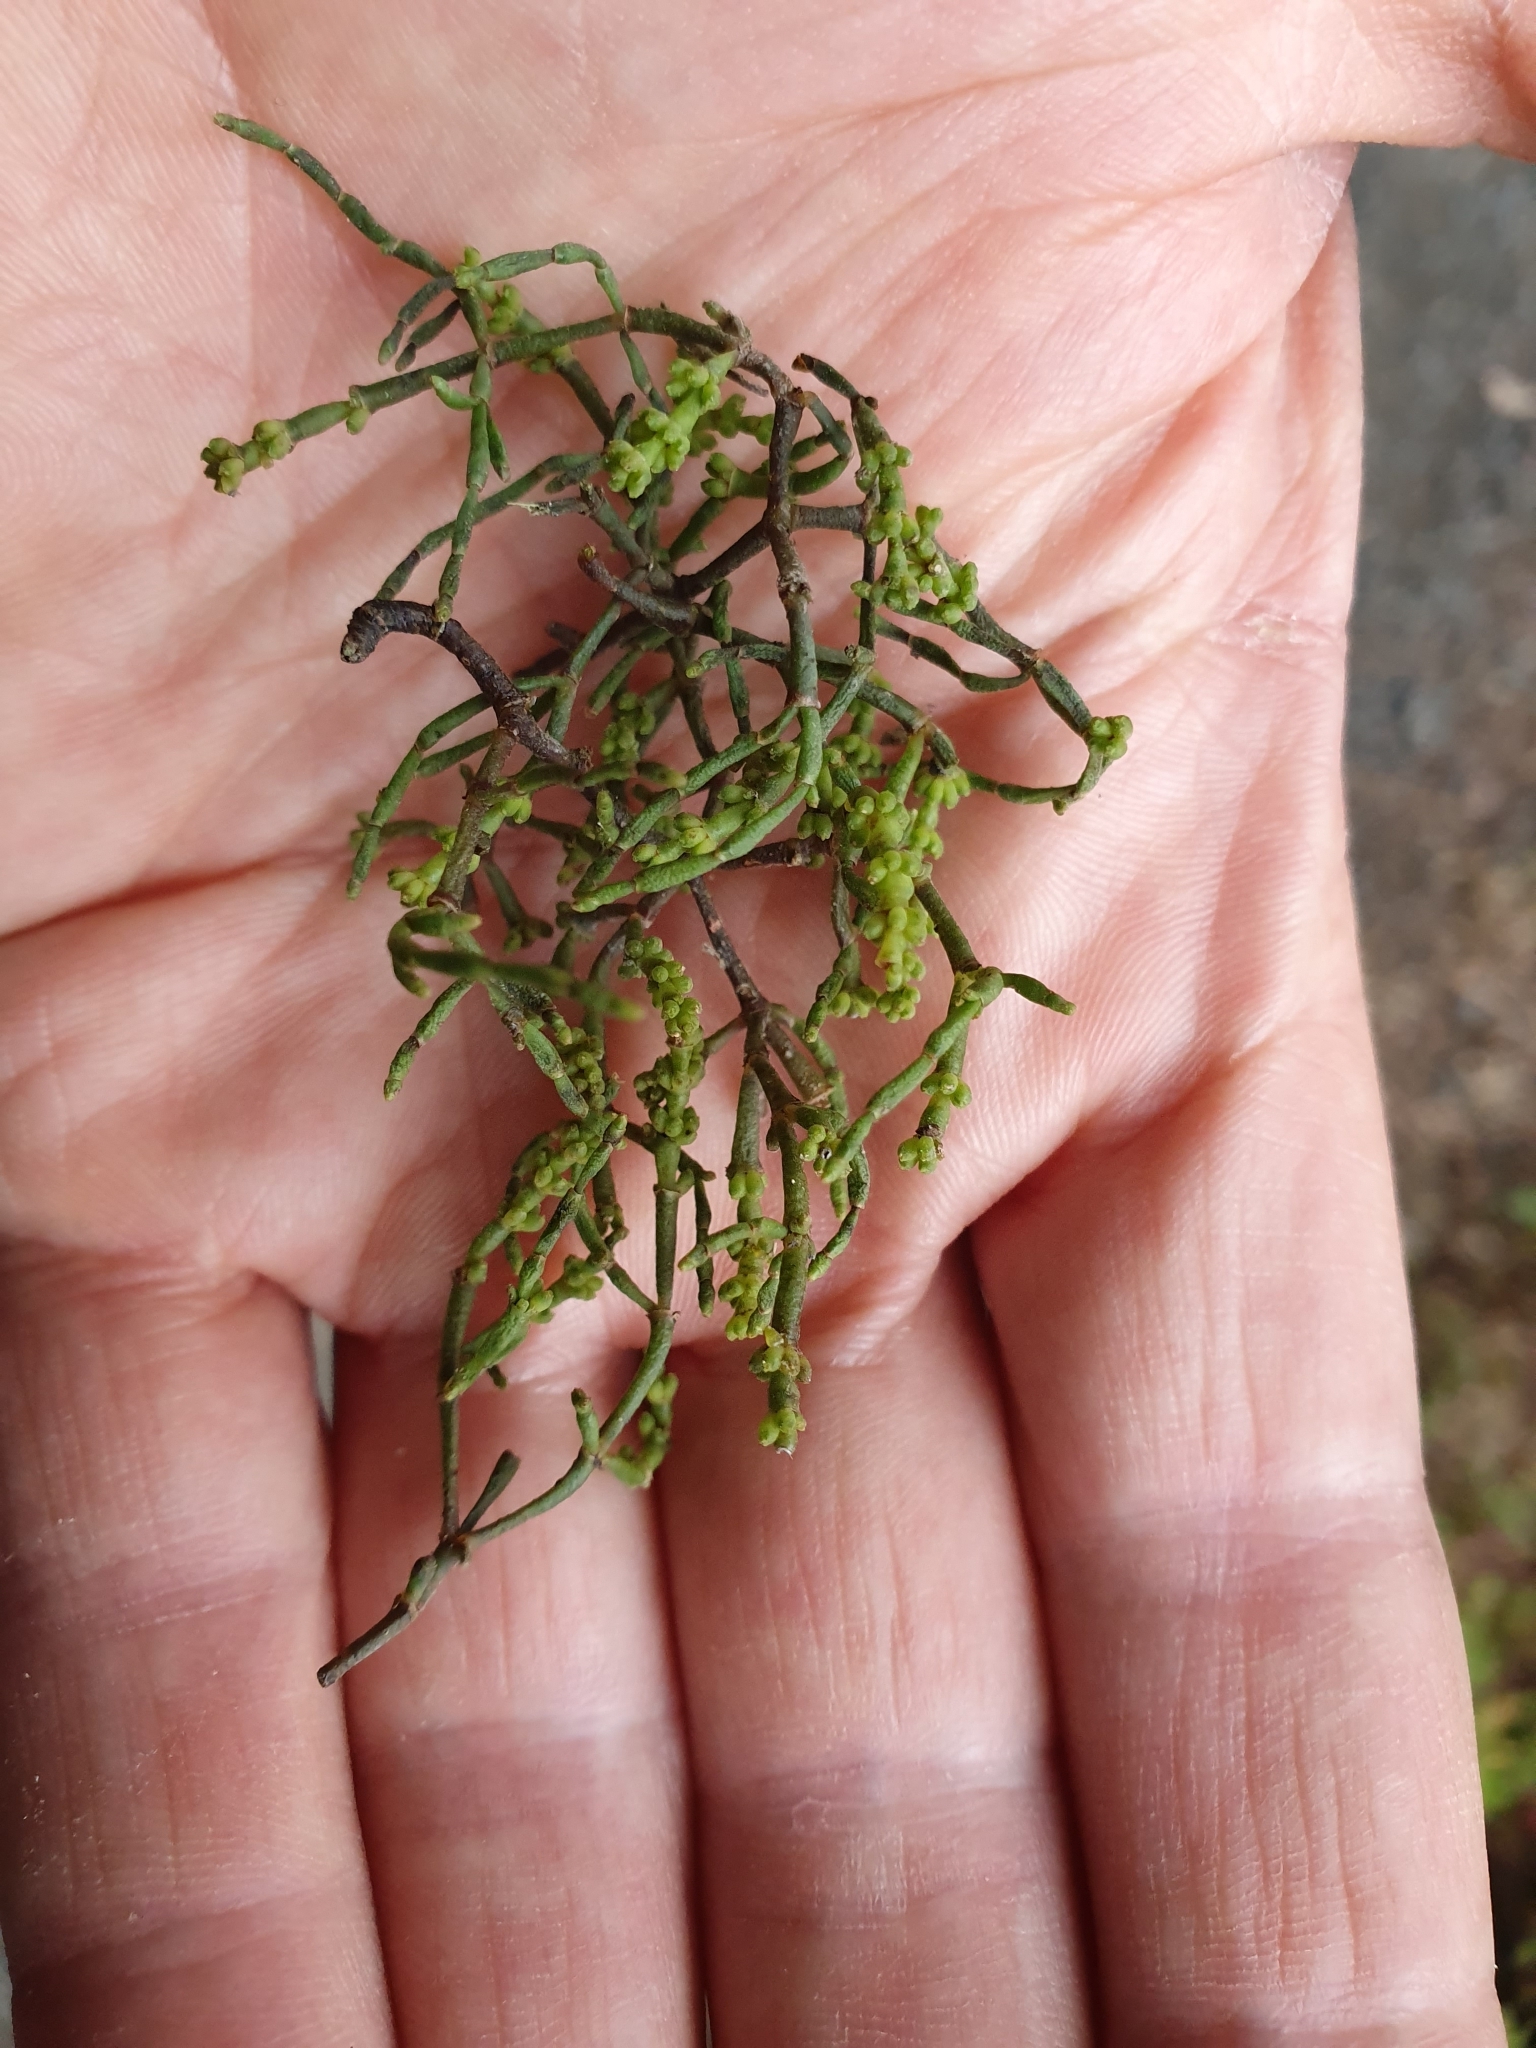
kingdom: Plantae
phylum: Tracheophyta
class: Magnoliopsida
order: Santalales
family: Viscaceae
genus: Korthalsella
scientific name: Korthalsella salicornioides
